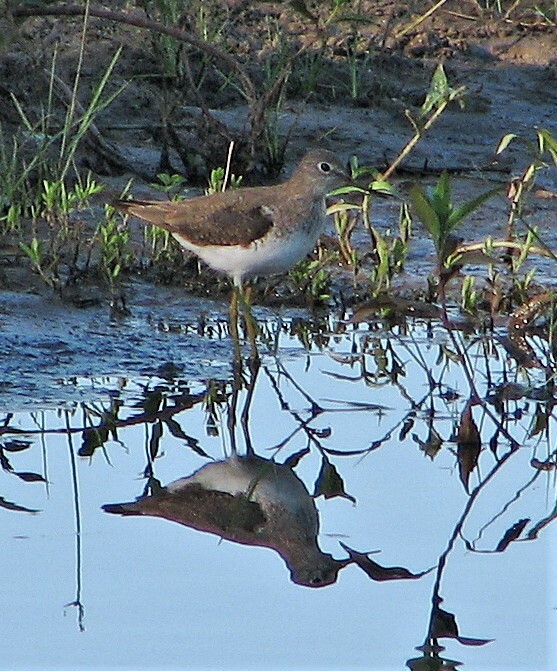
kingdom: Animalia
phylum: Chordata
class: Aves
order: Charadriiformes
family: Scolopacidae
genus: Tringa
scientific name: Tringa solitaria
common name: Solitary sandpiper
